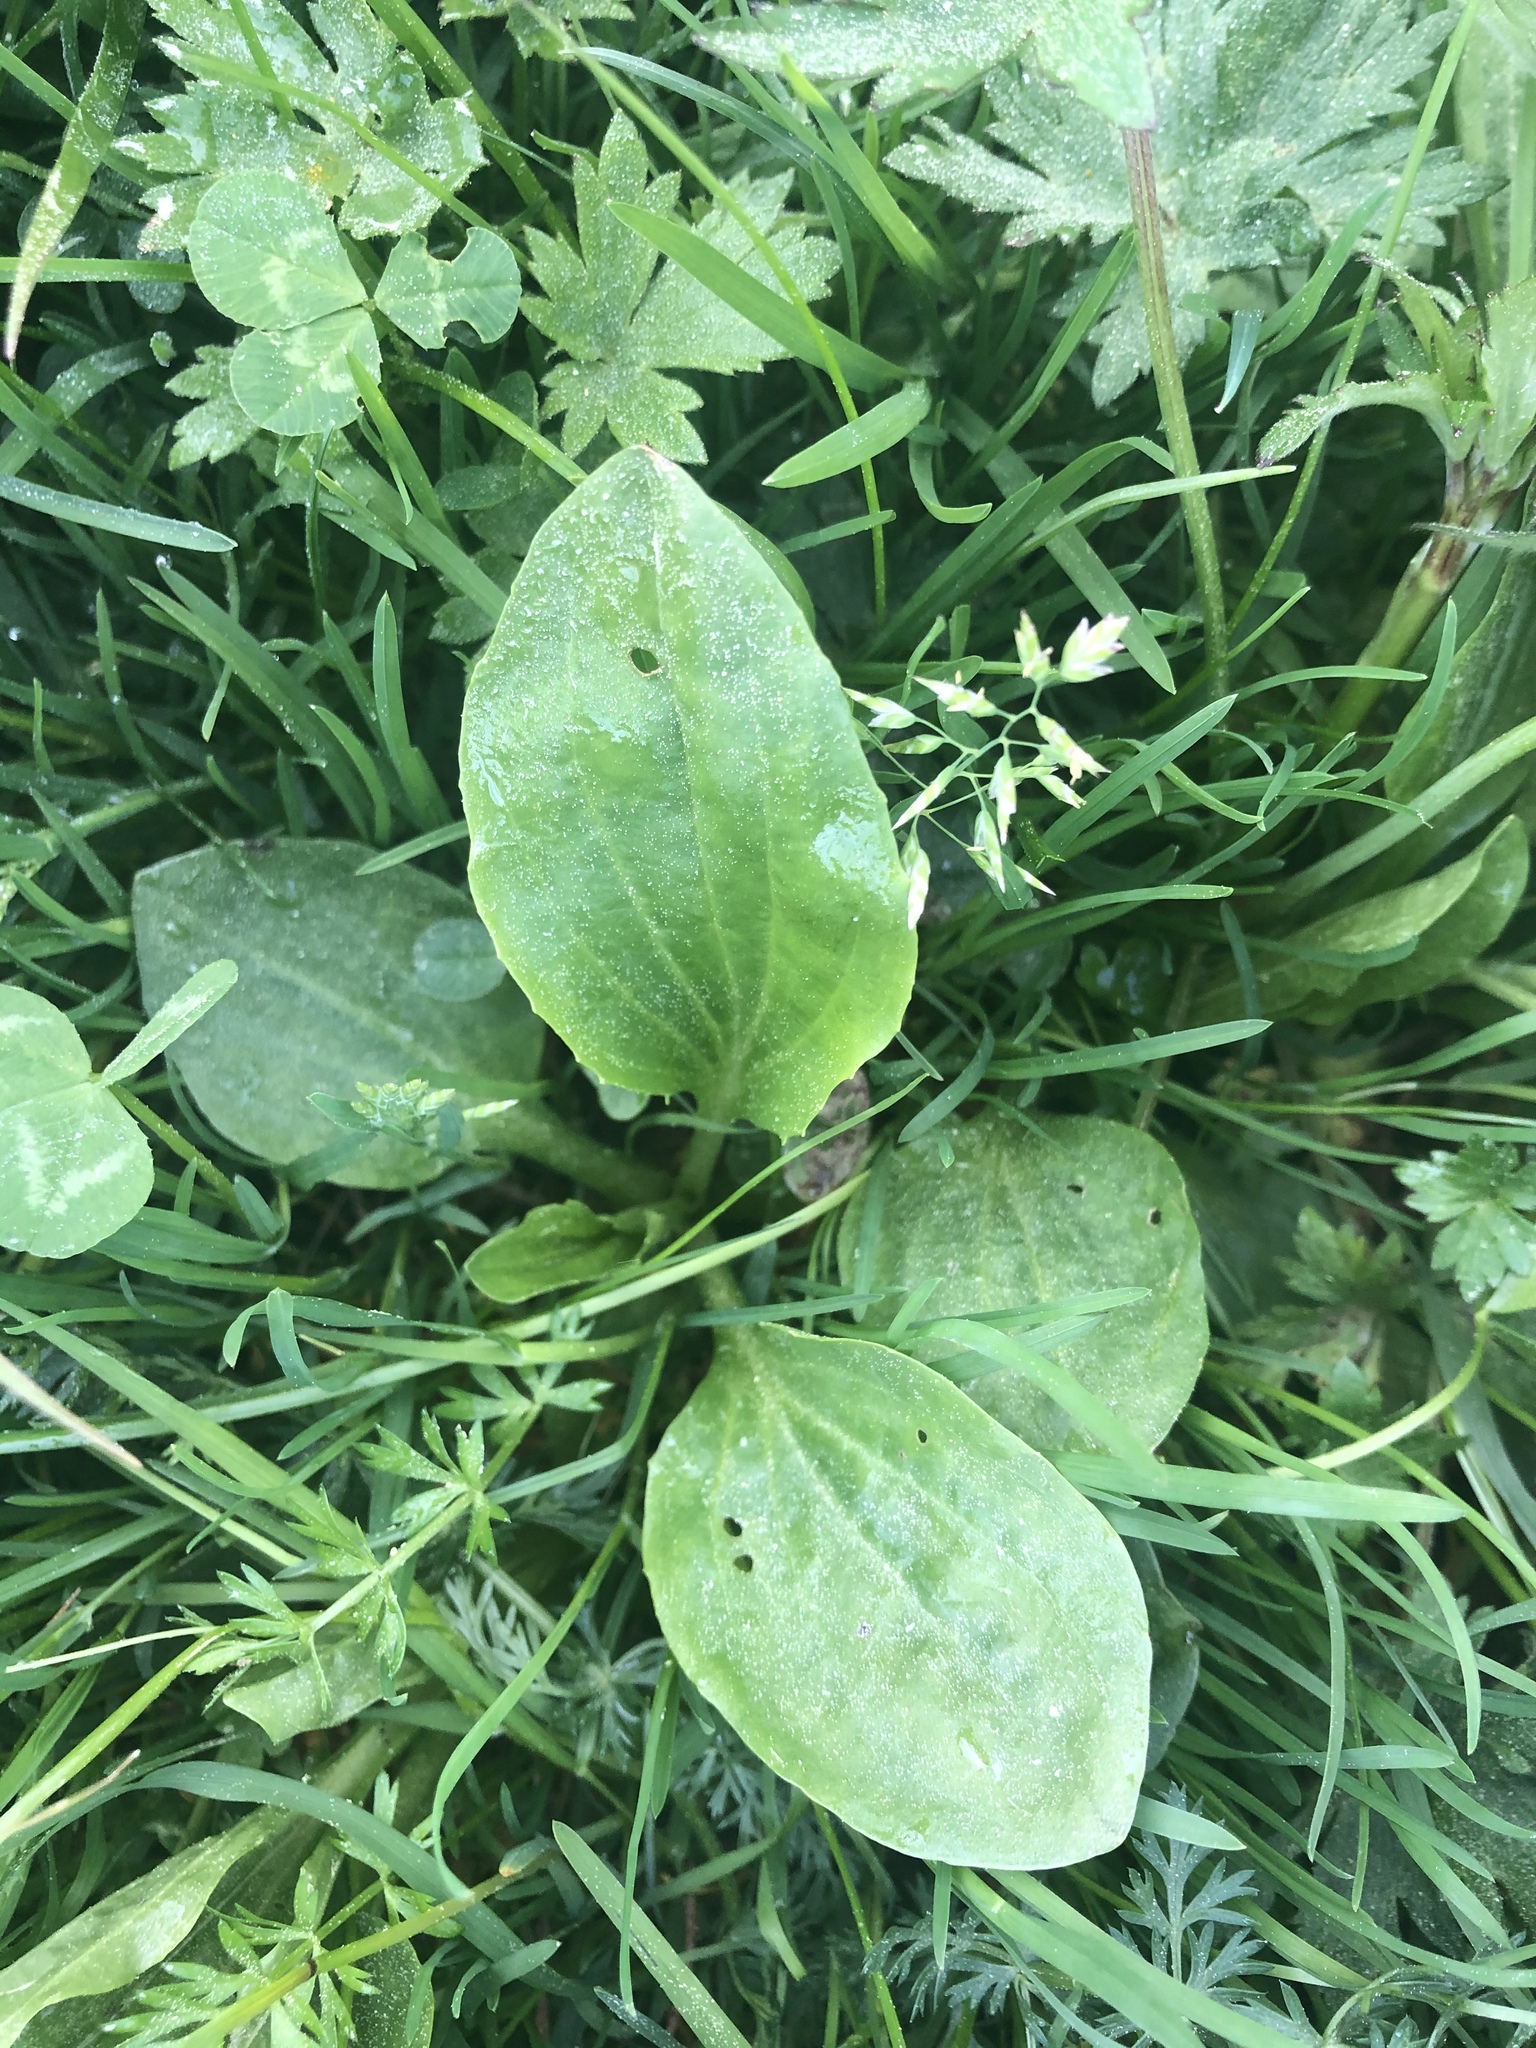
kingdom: Plantae
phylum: Tracheophyta
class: Magnoliopsida
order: Lamiales
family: Plantaginaceae
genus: Plantago
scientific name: Plantago major
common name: Common plantain
